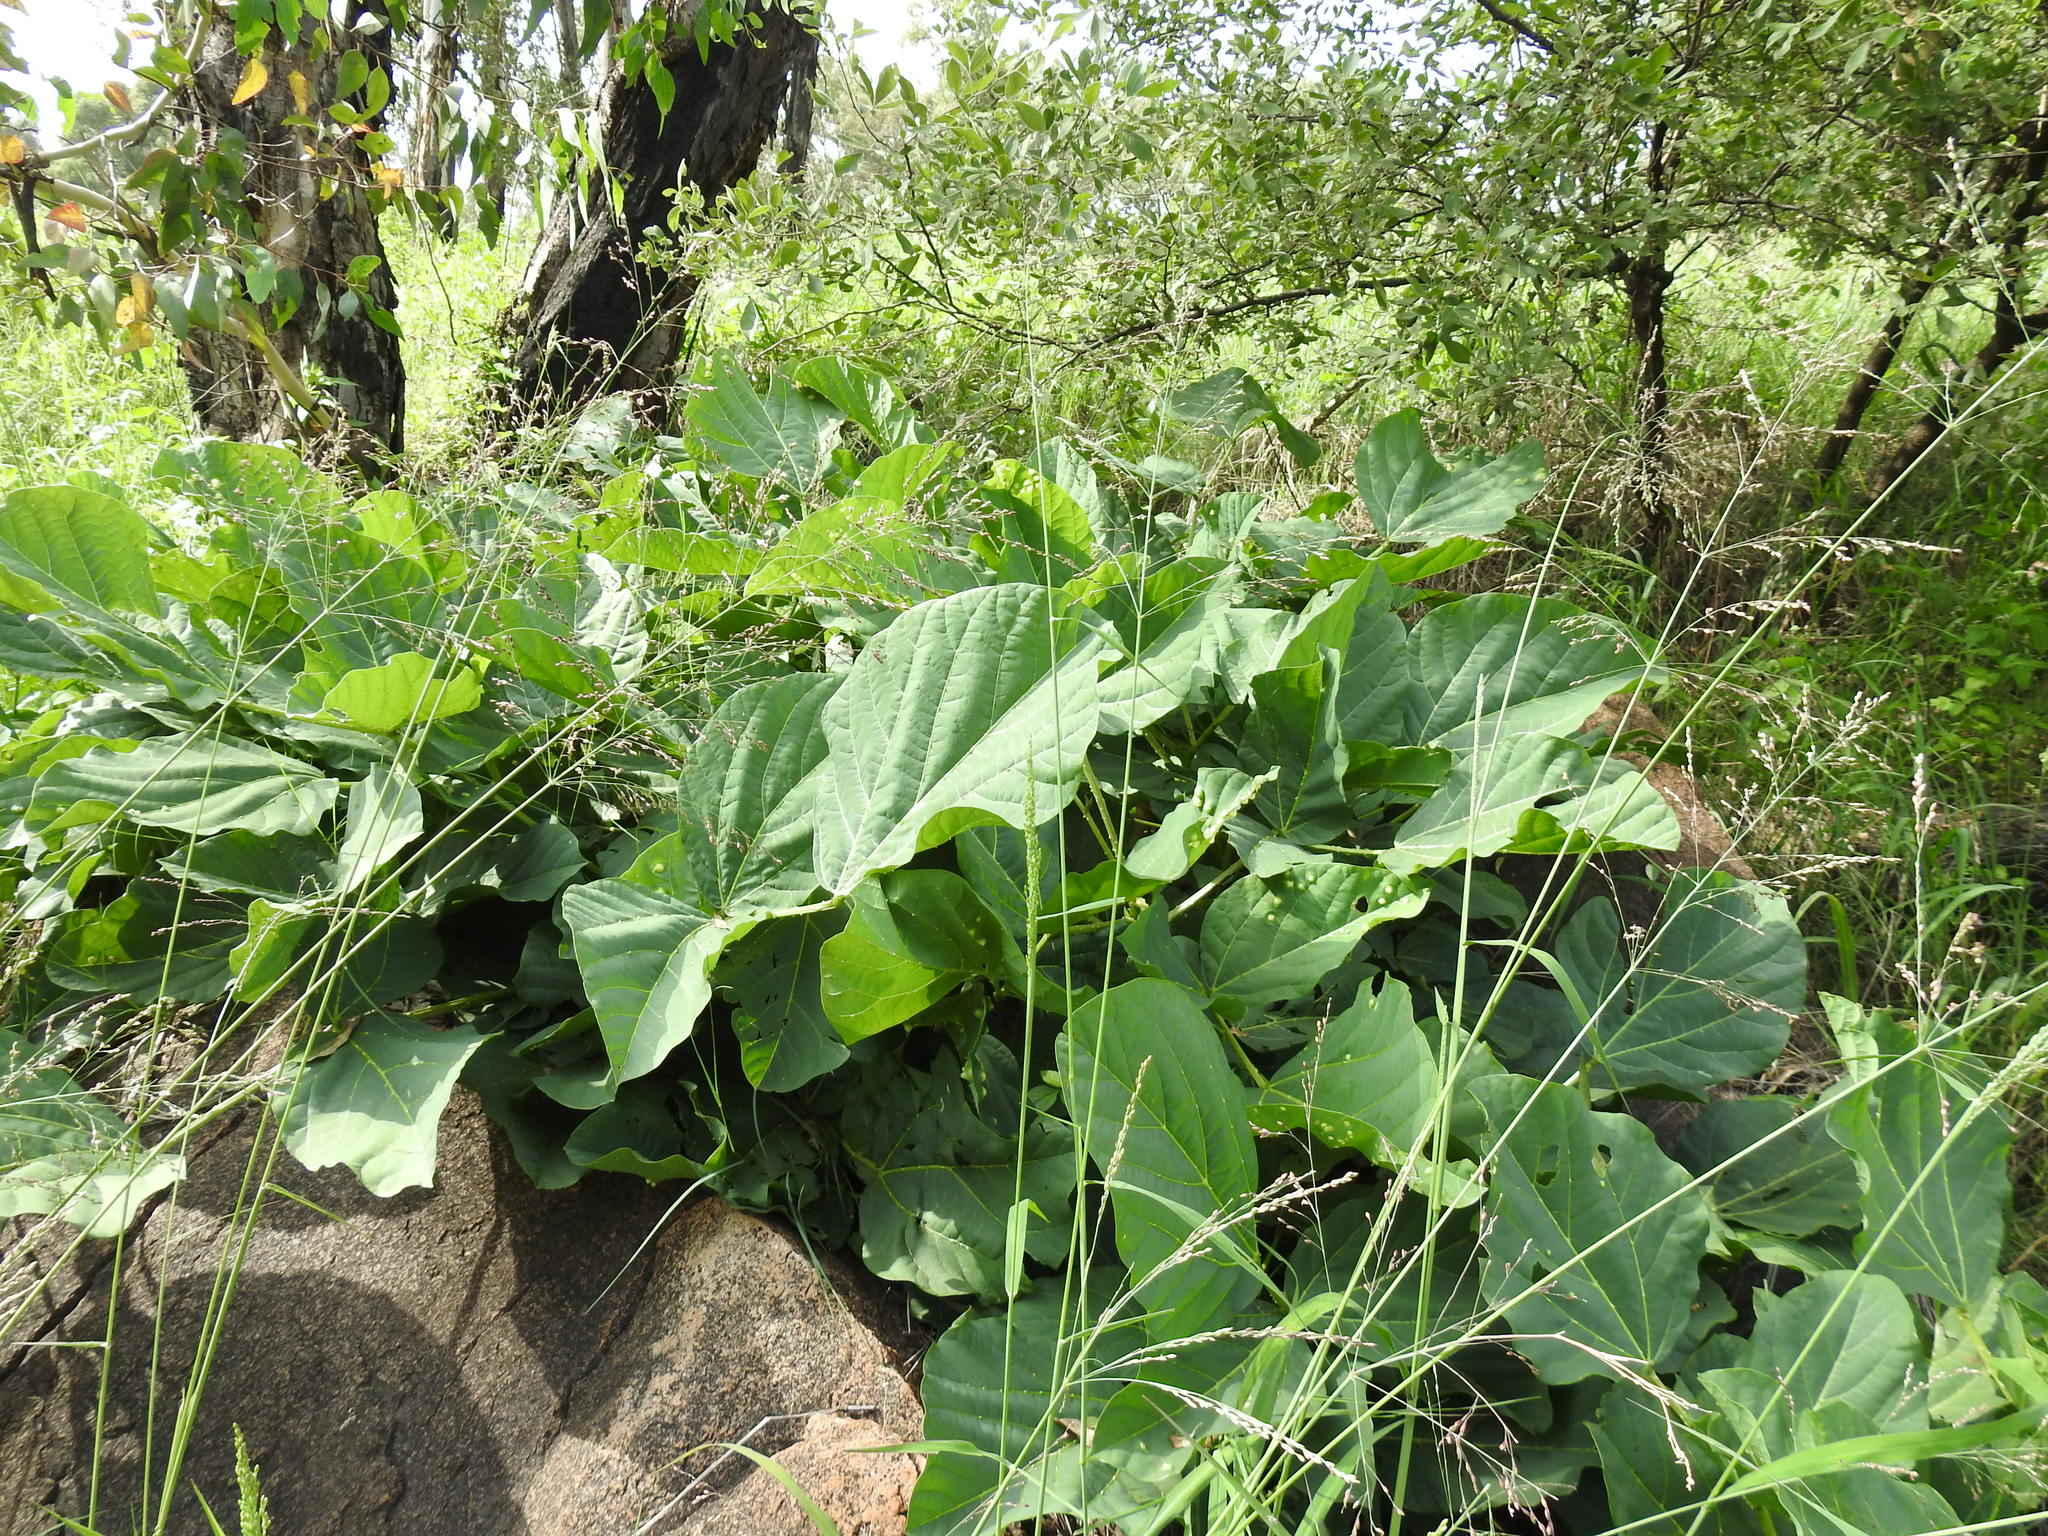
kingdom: Plantae
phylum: Tracheophyta
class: Magnoliopsida
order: Fabales
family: Fabaceae
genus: Erythrina
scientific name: Erythrina zeyheri
